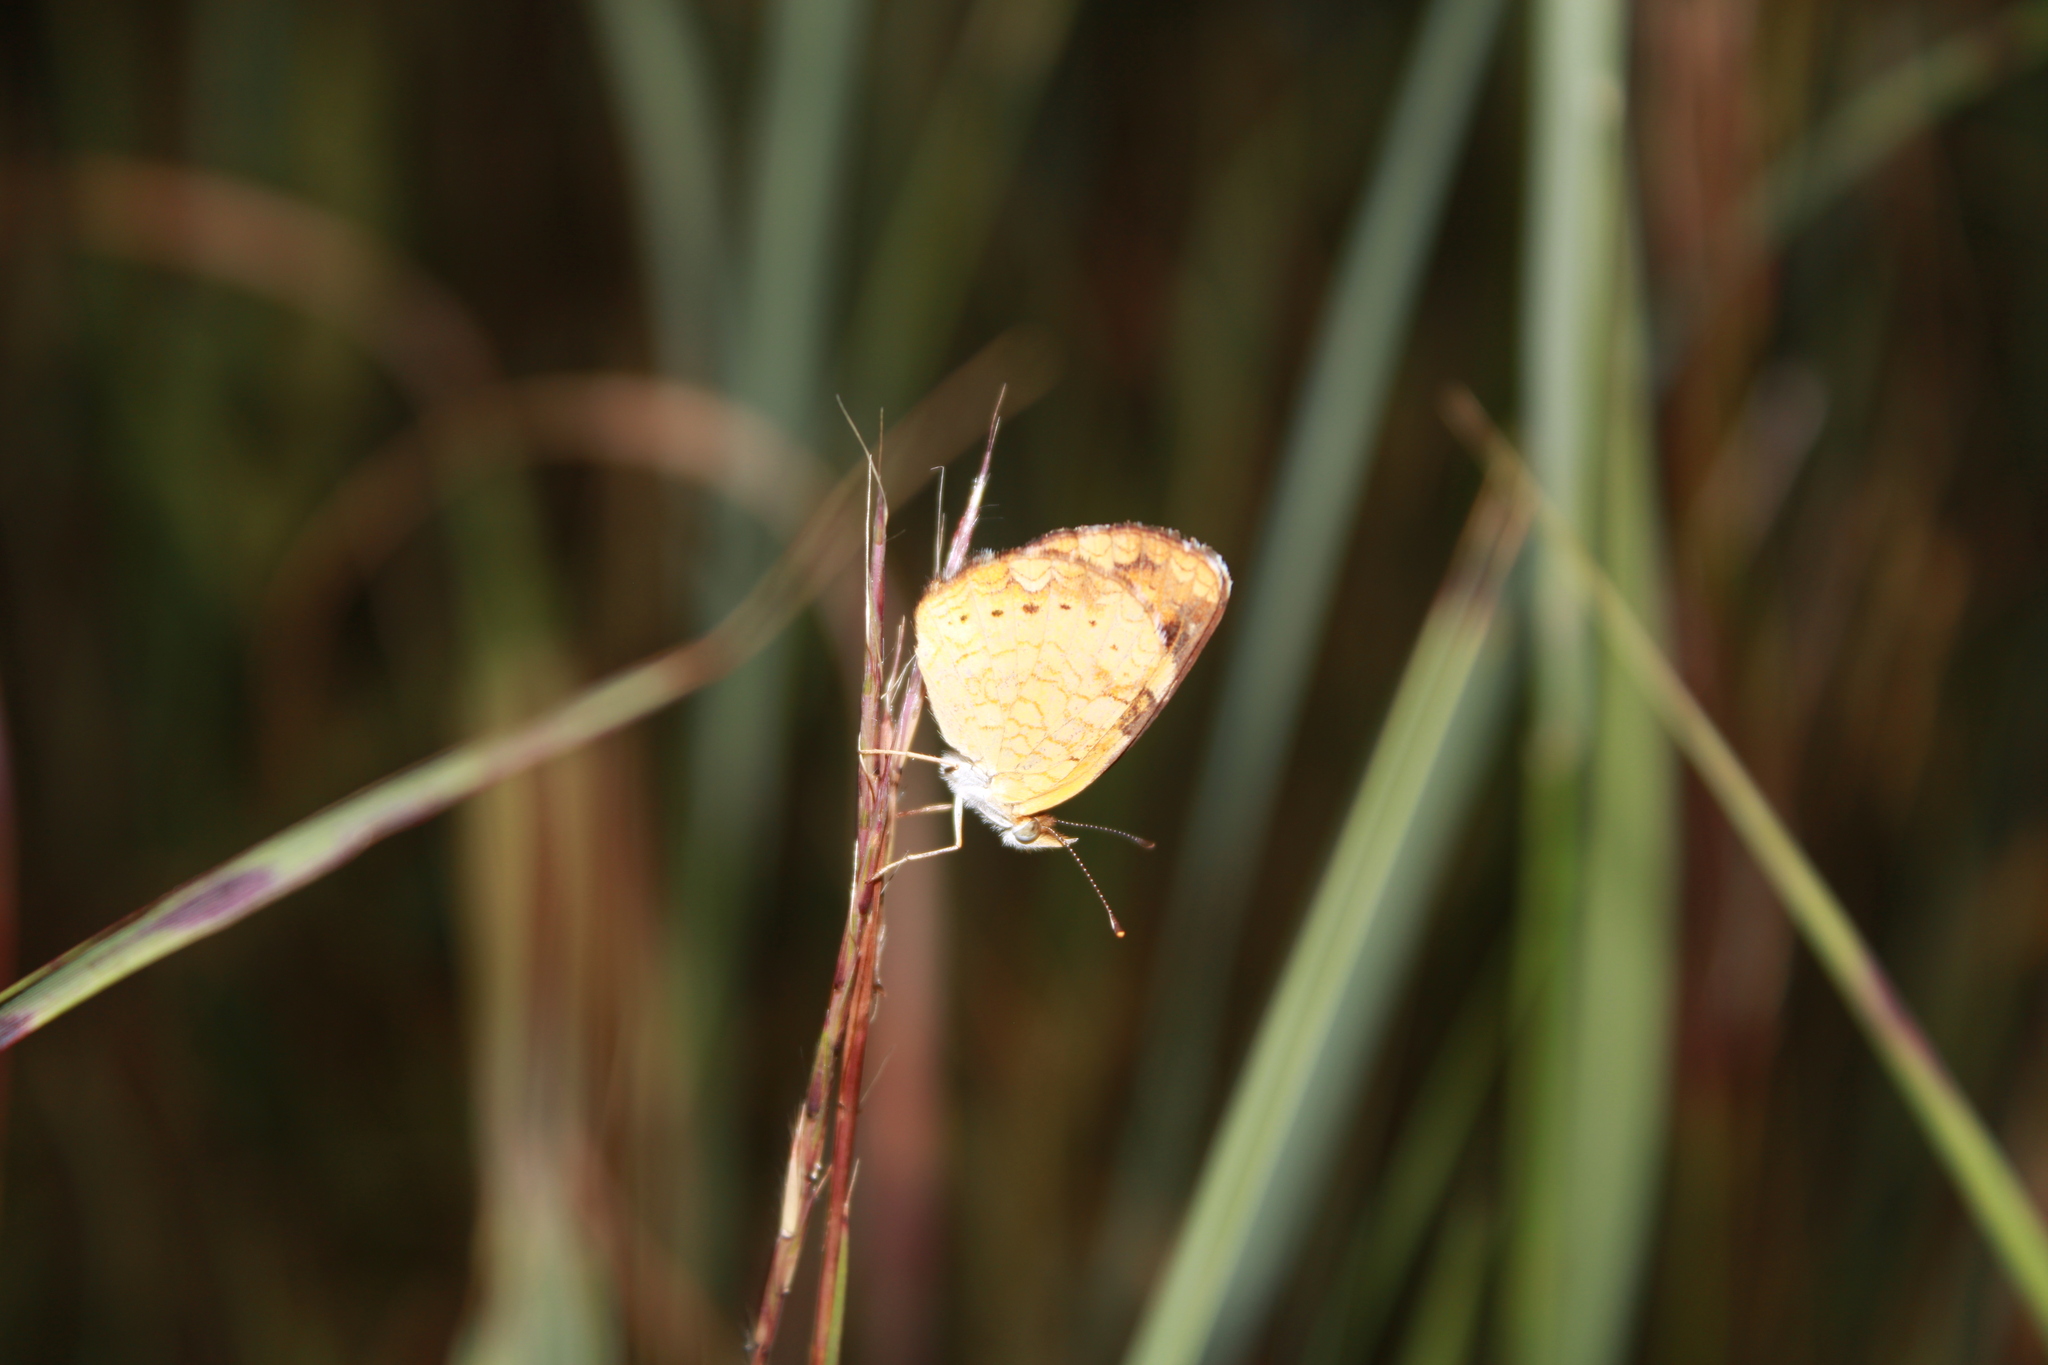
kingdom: Animalia
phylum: Arthropoda
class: Insecta
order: Lepidoptera
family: Nymphalidae
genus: Phyciodes
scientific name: Phyciodes tharos
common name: Pearl crescent
